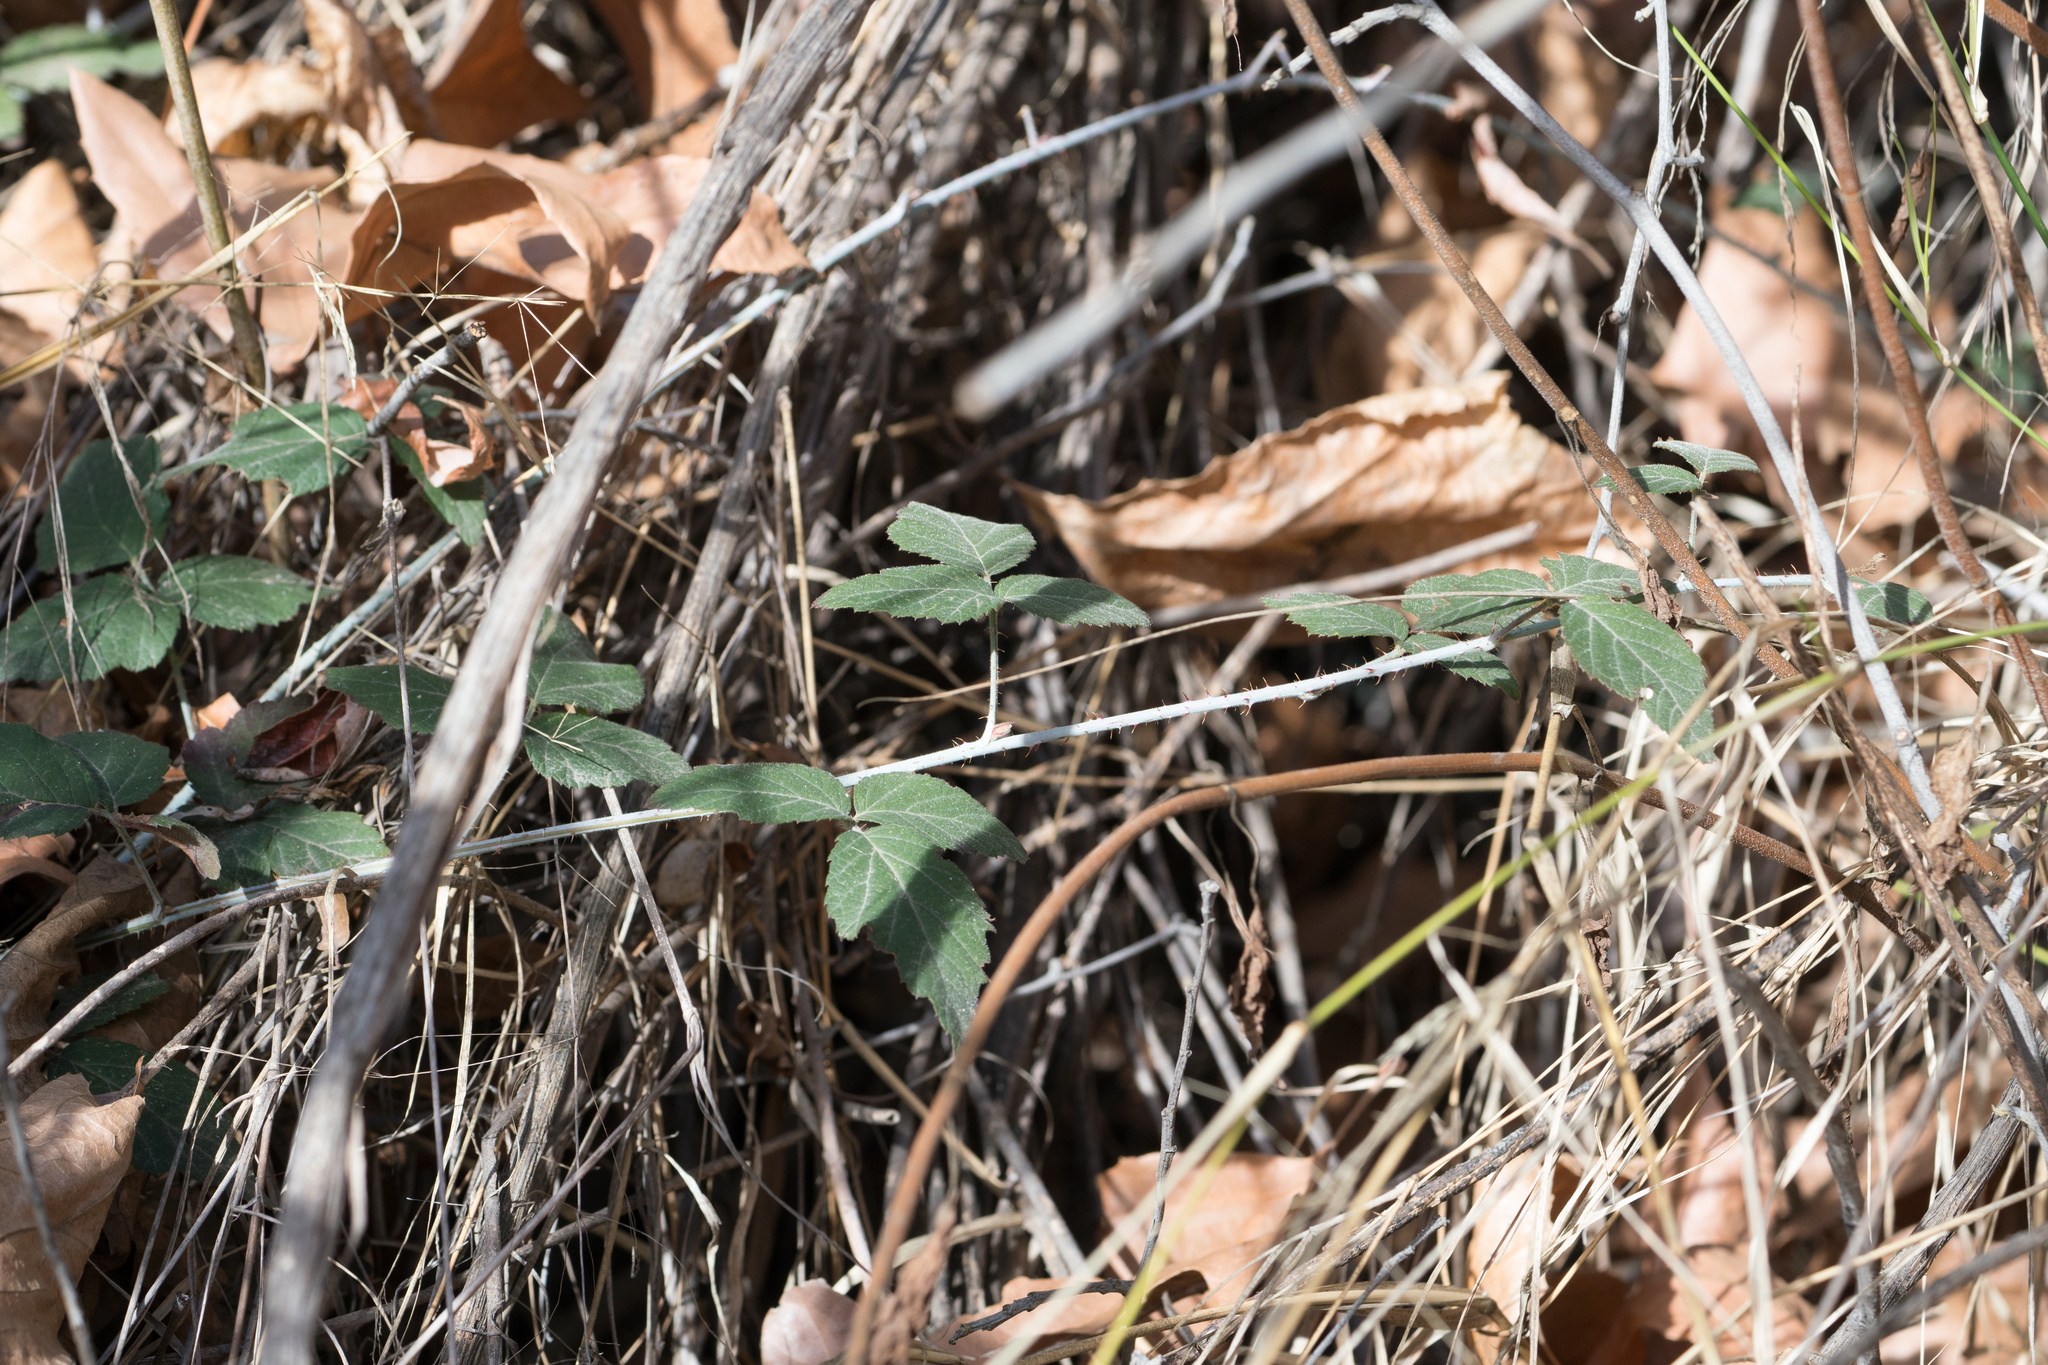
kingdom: Plantae
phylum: Tracheophyta
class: Magnoliopsida
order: Rosales
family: Rosaceae
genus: Rubus
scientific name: Rubus ursinus
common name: Pacific blackberry
